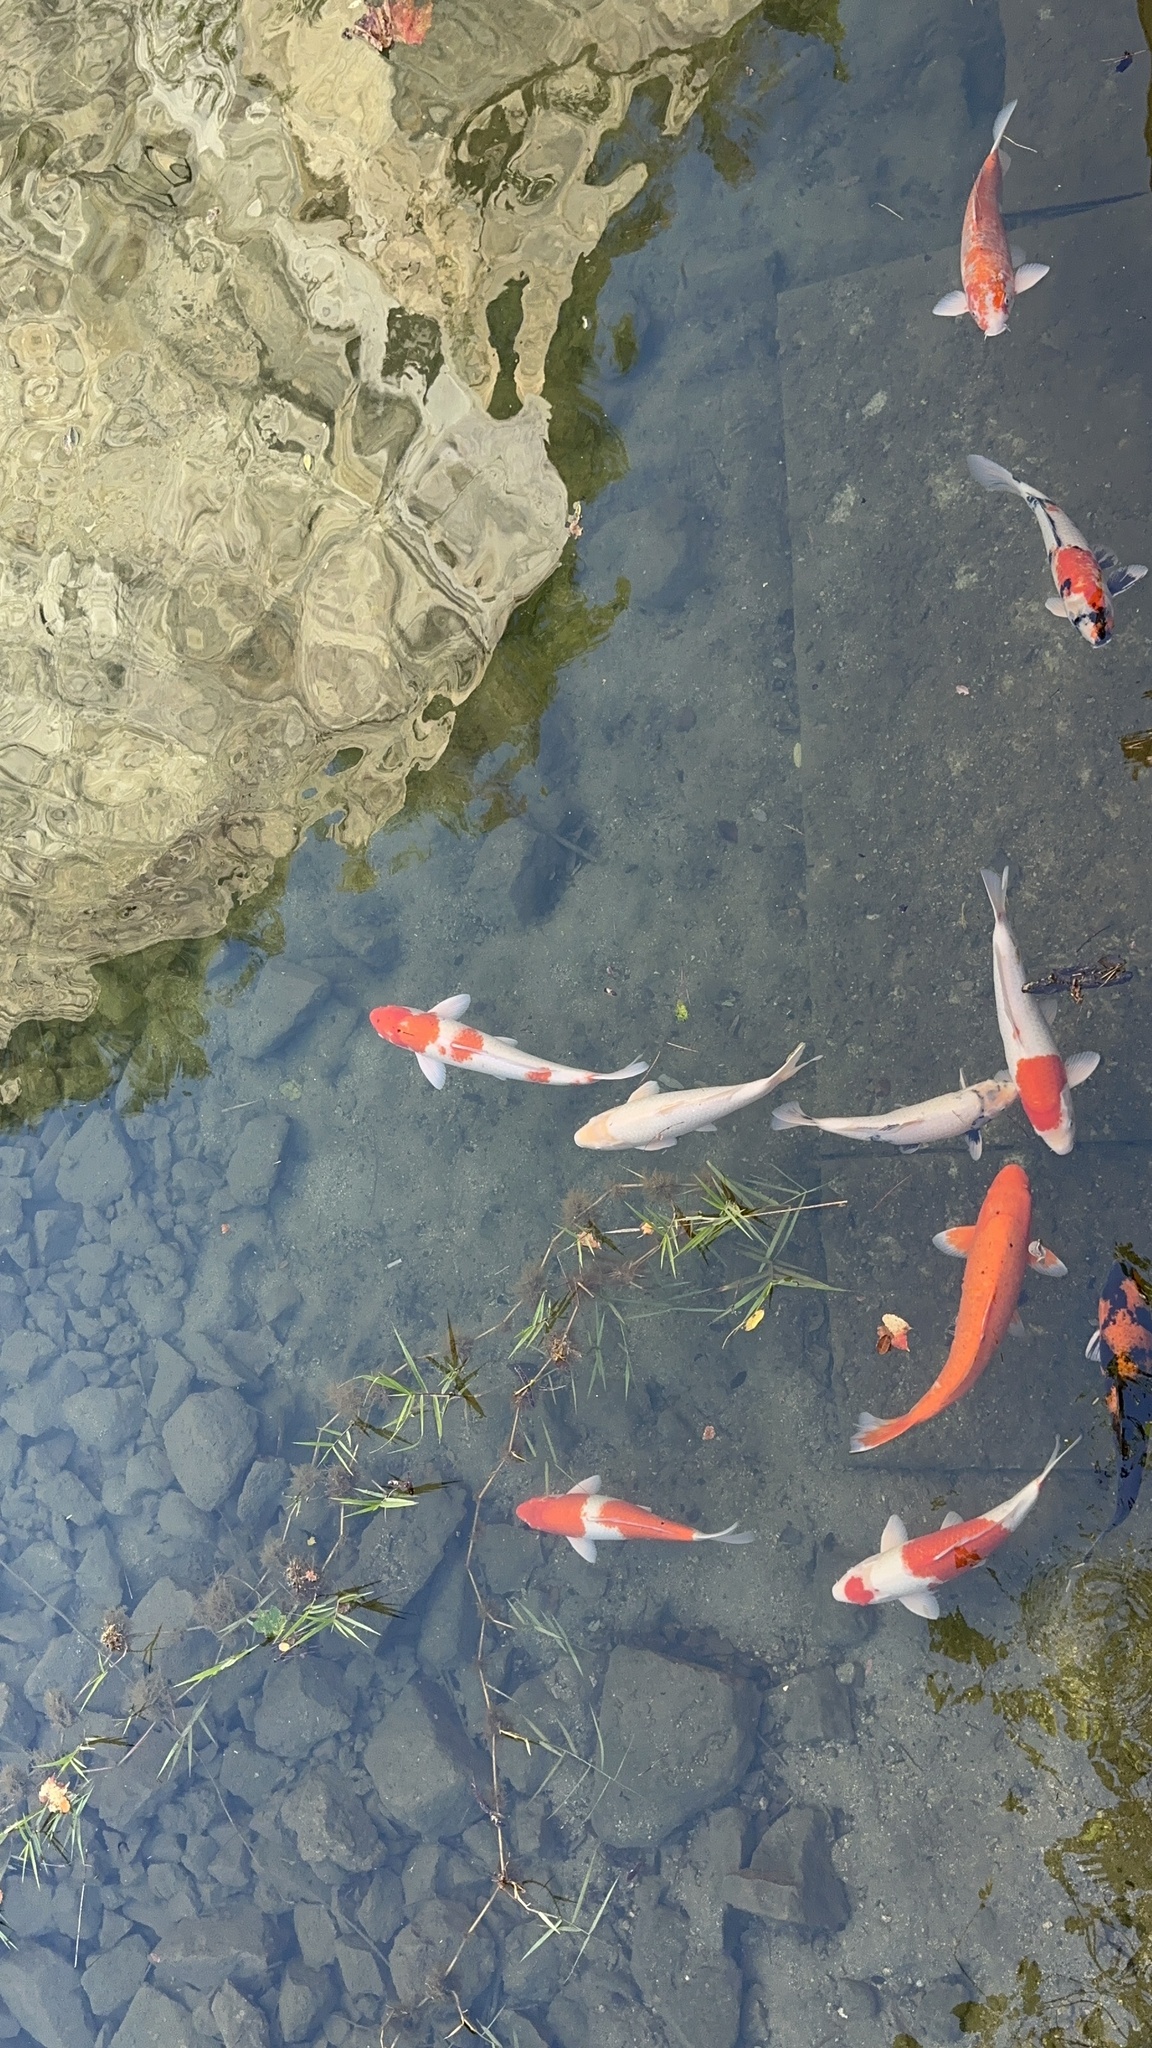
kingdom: Animalia
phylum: Chordata
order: Cypriniformes
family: Cyprinidae
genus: Cyprinus
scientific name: Cyprinus rubrofuscus
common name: Koi
